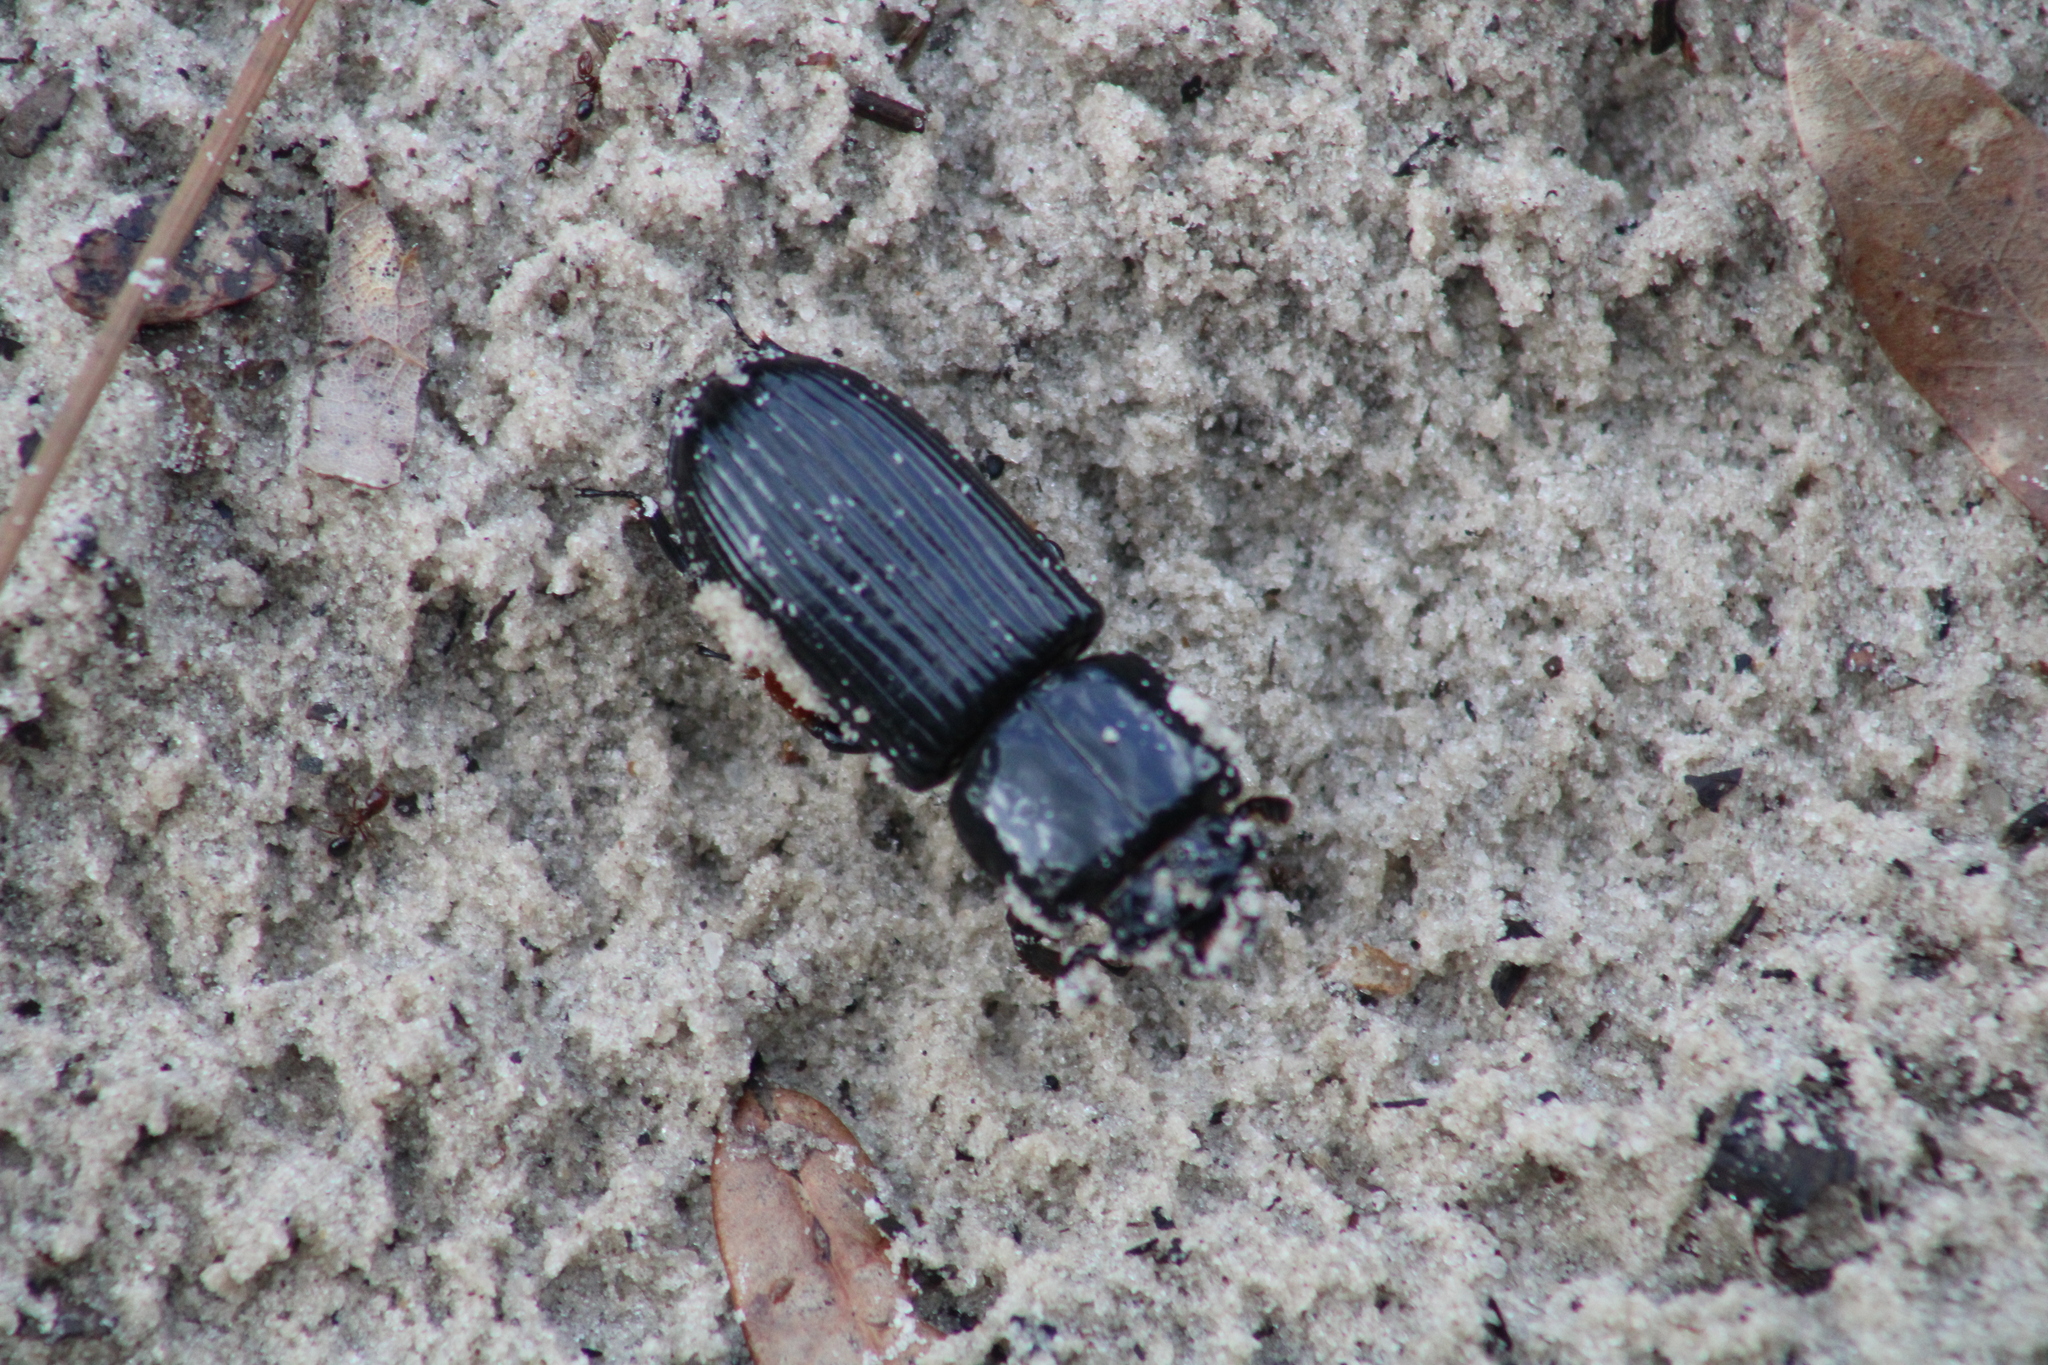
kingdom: Animalia
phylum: Arthropoda
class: Insecta
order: Coleoptera
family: Passalidae
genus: Odontotaenius
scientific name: Odontotaenius disjunctus
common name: Patent leather beetle
